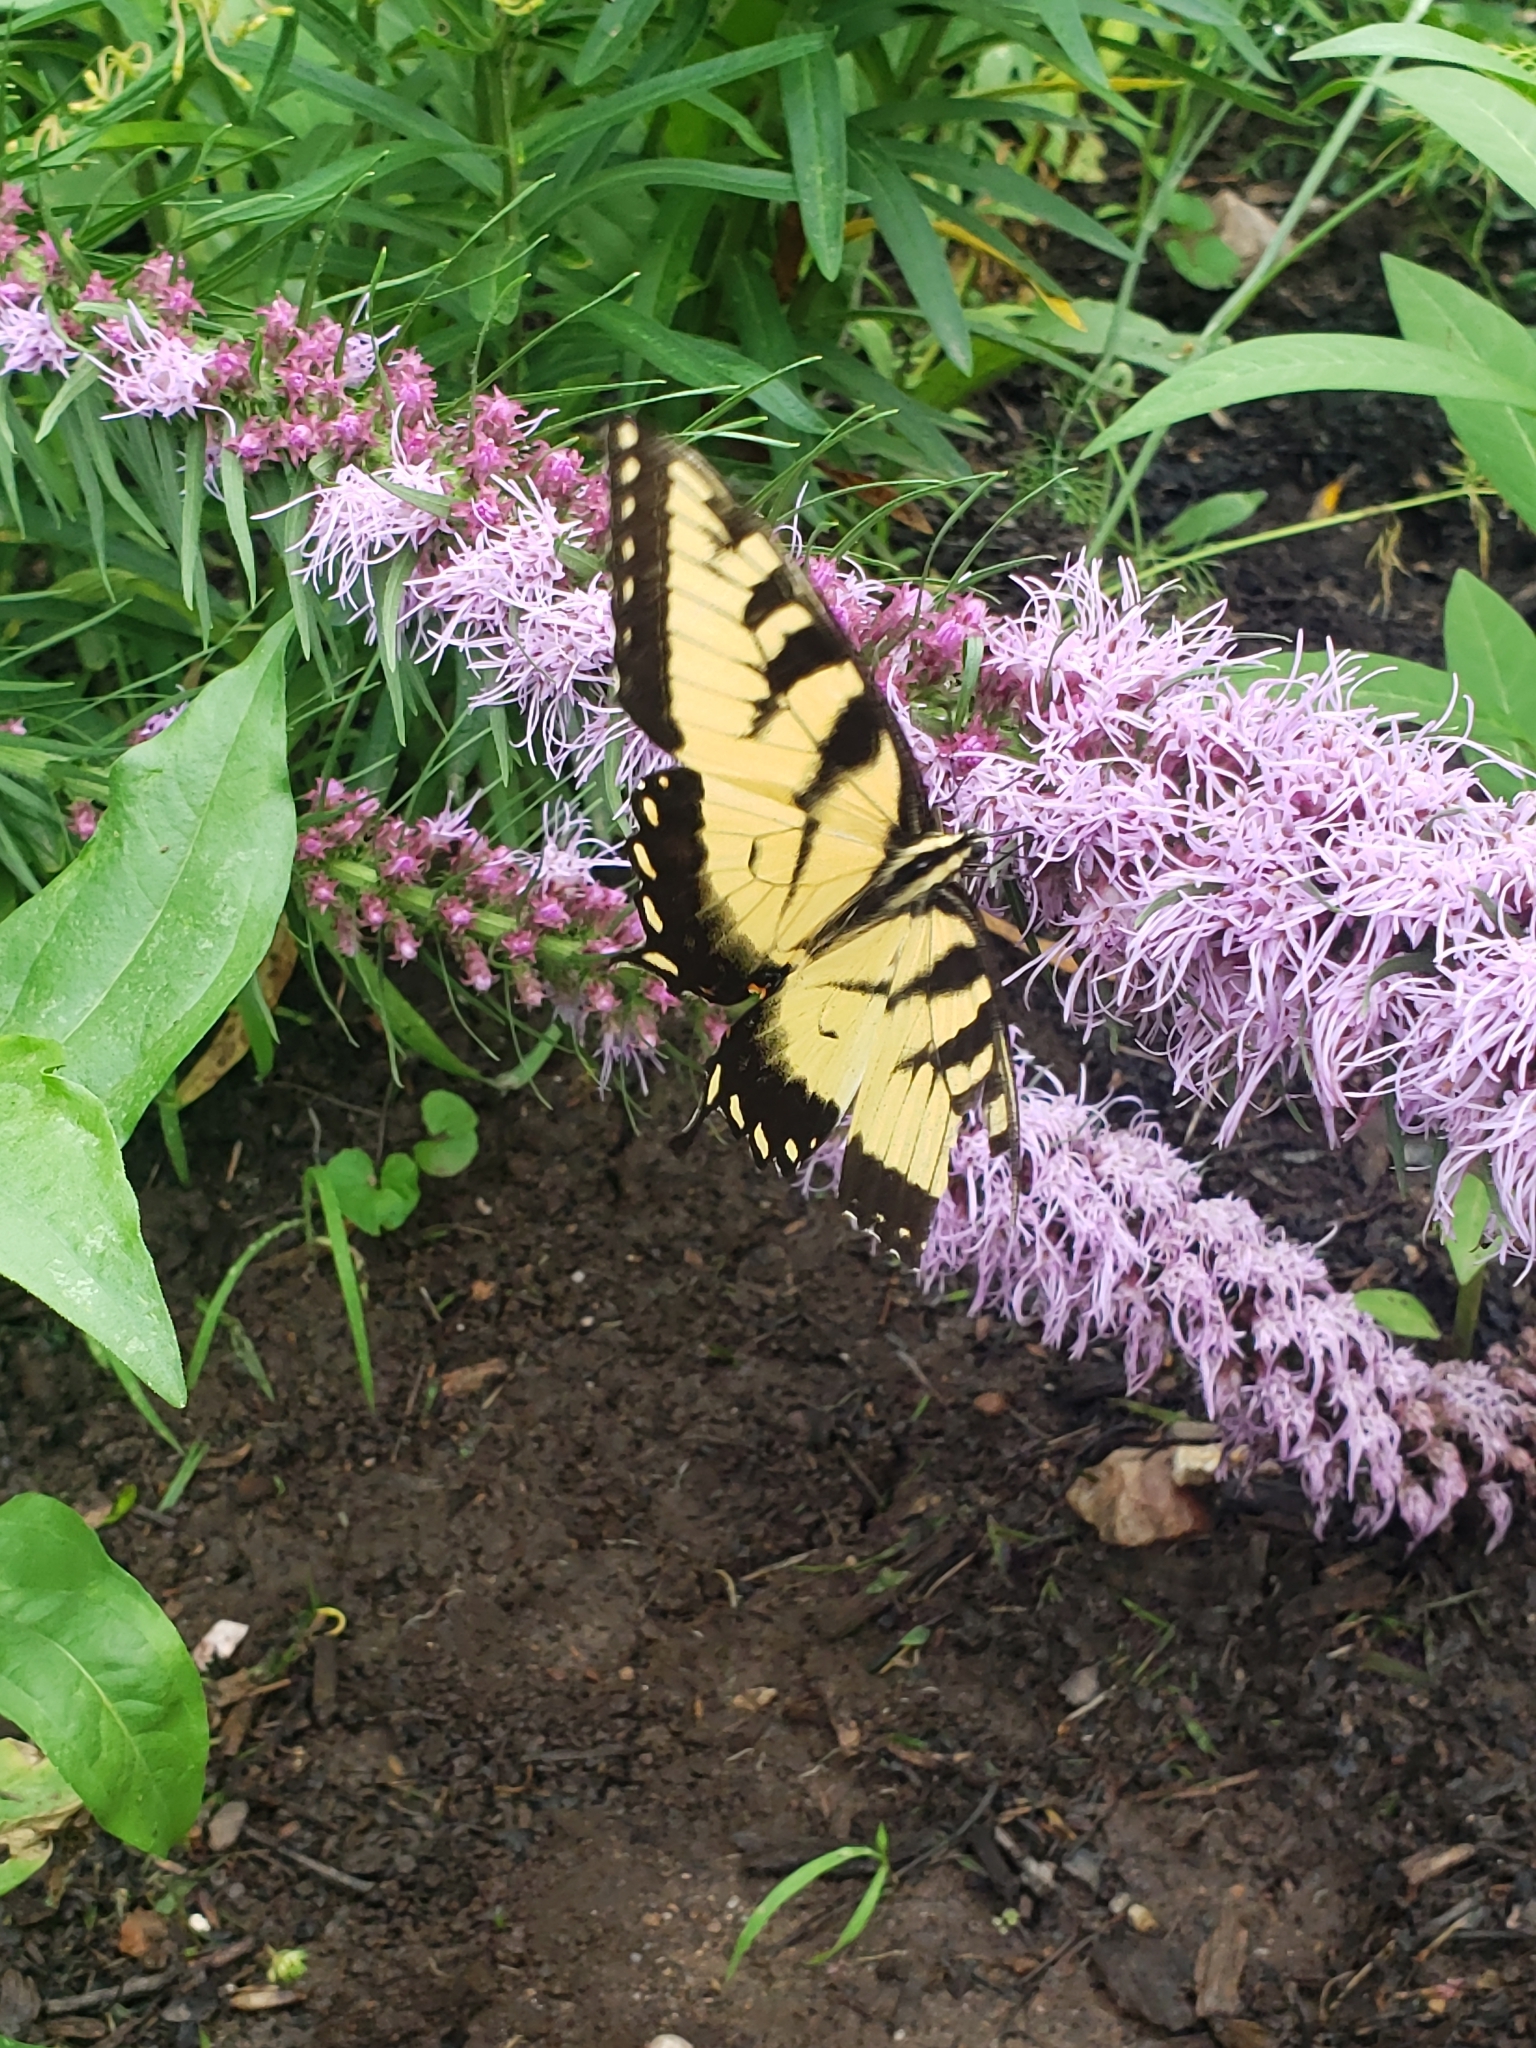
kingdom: Animalia
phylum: Arthropoda
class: Insecta
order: Lepidoptera
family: Papilionidae
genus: Papilio
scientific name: Papilio glaucus
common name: Tiger swallowtail
